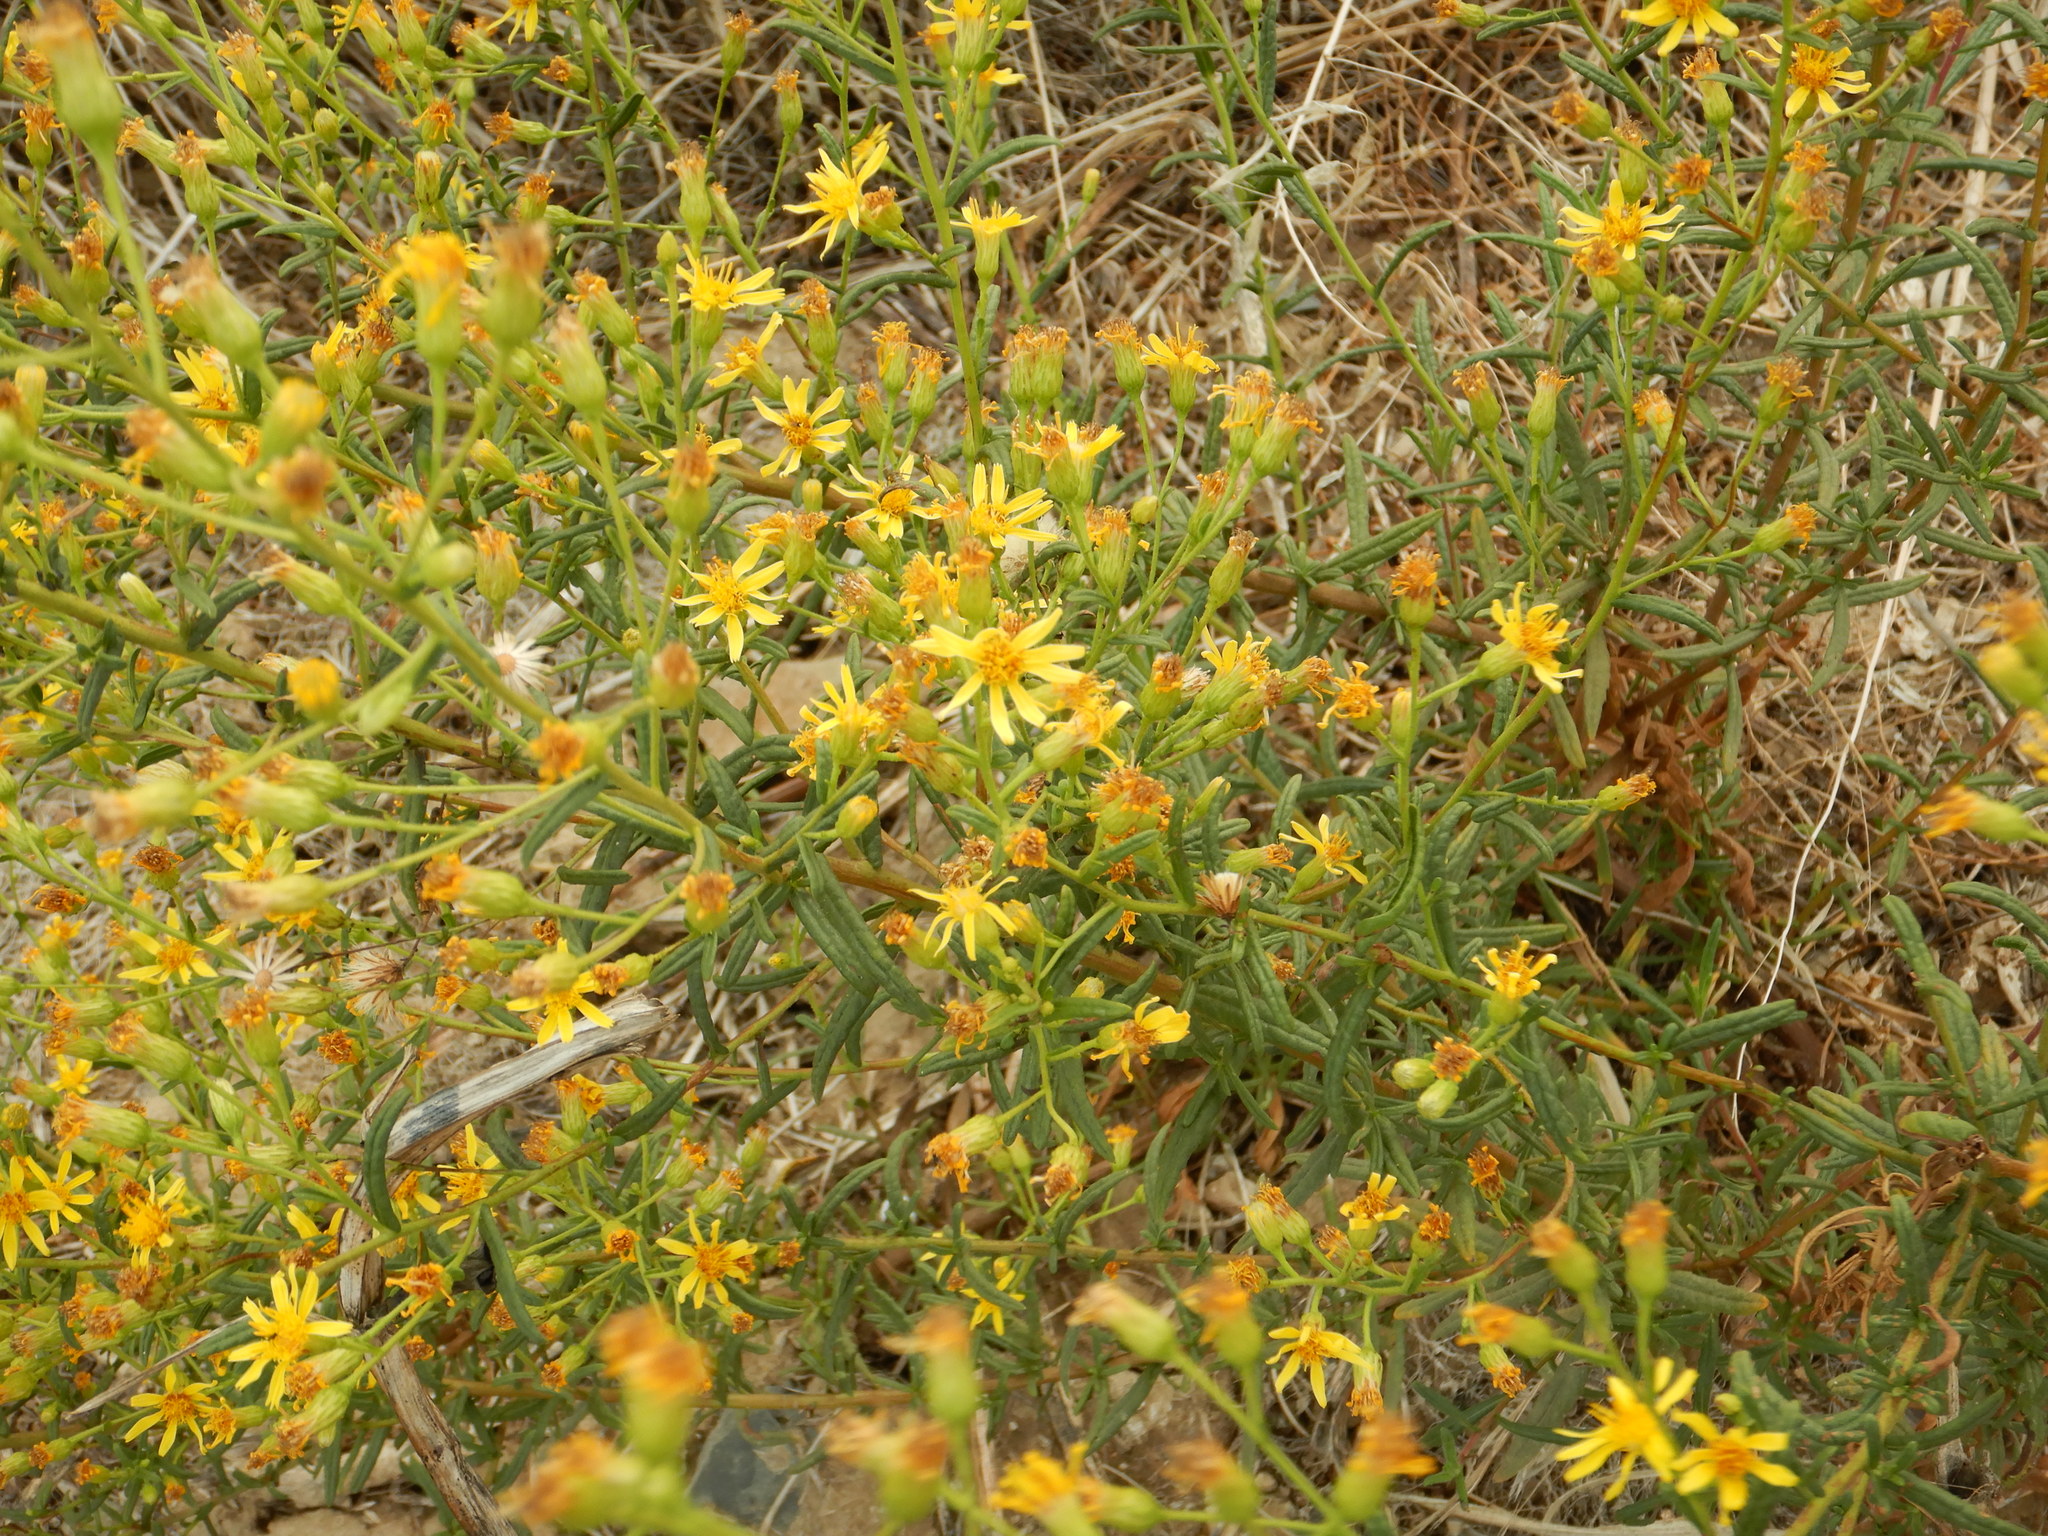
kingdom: Plantae
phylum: Tracheophyta
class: Magnoliopsida
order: Asterales
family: Asteraceae
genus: Dittrichia
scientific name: Dittrichia viscosa
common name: Woody fleabane
